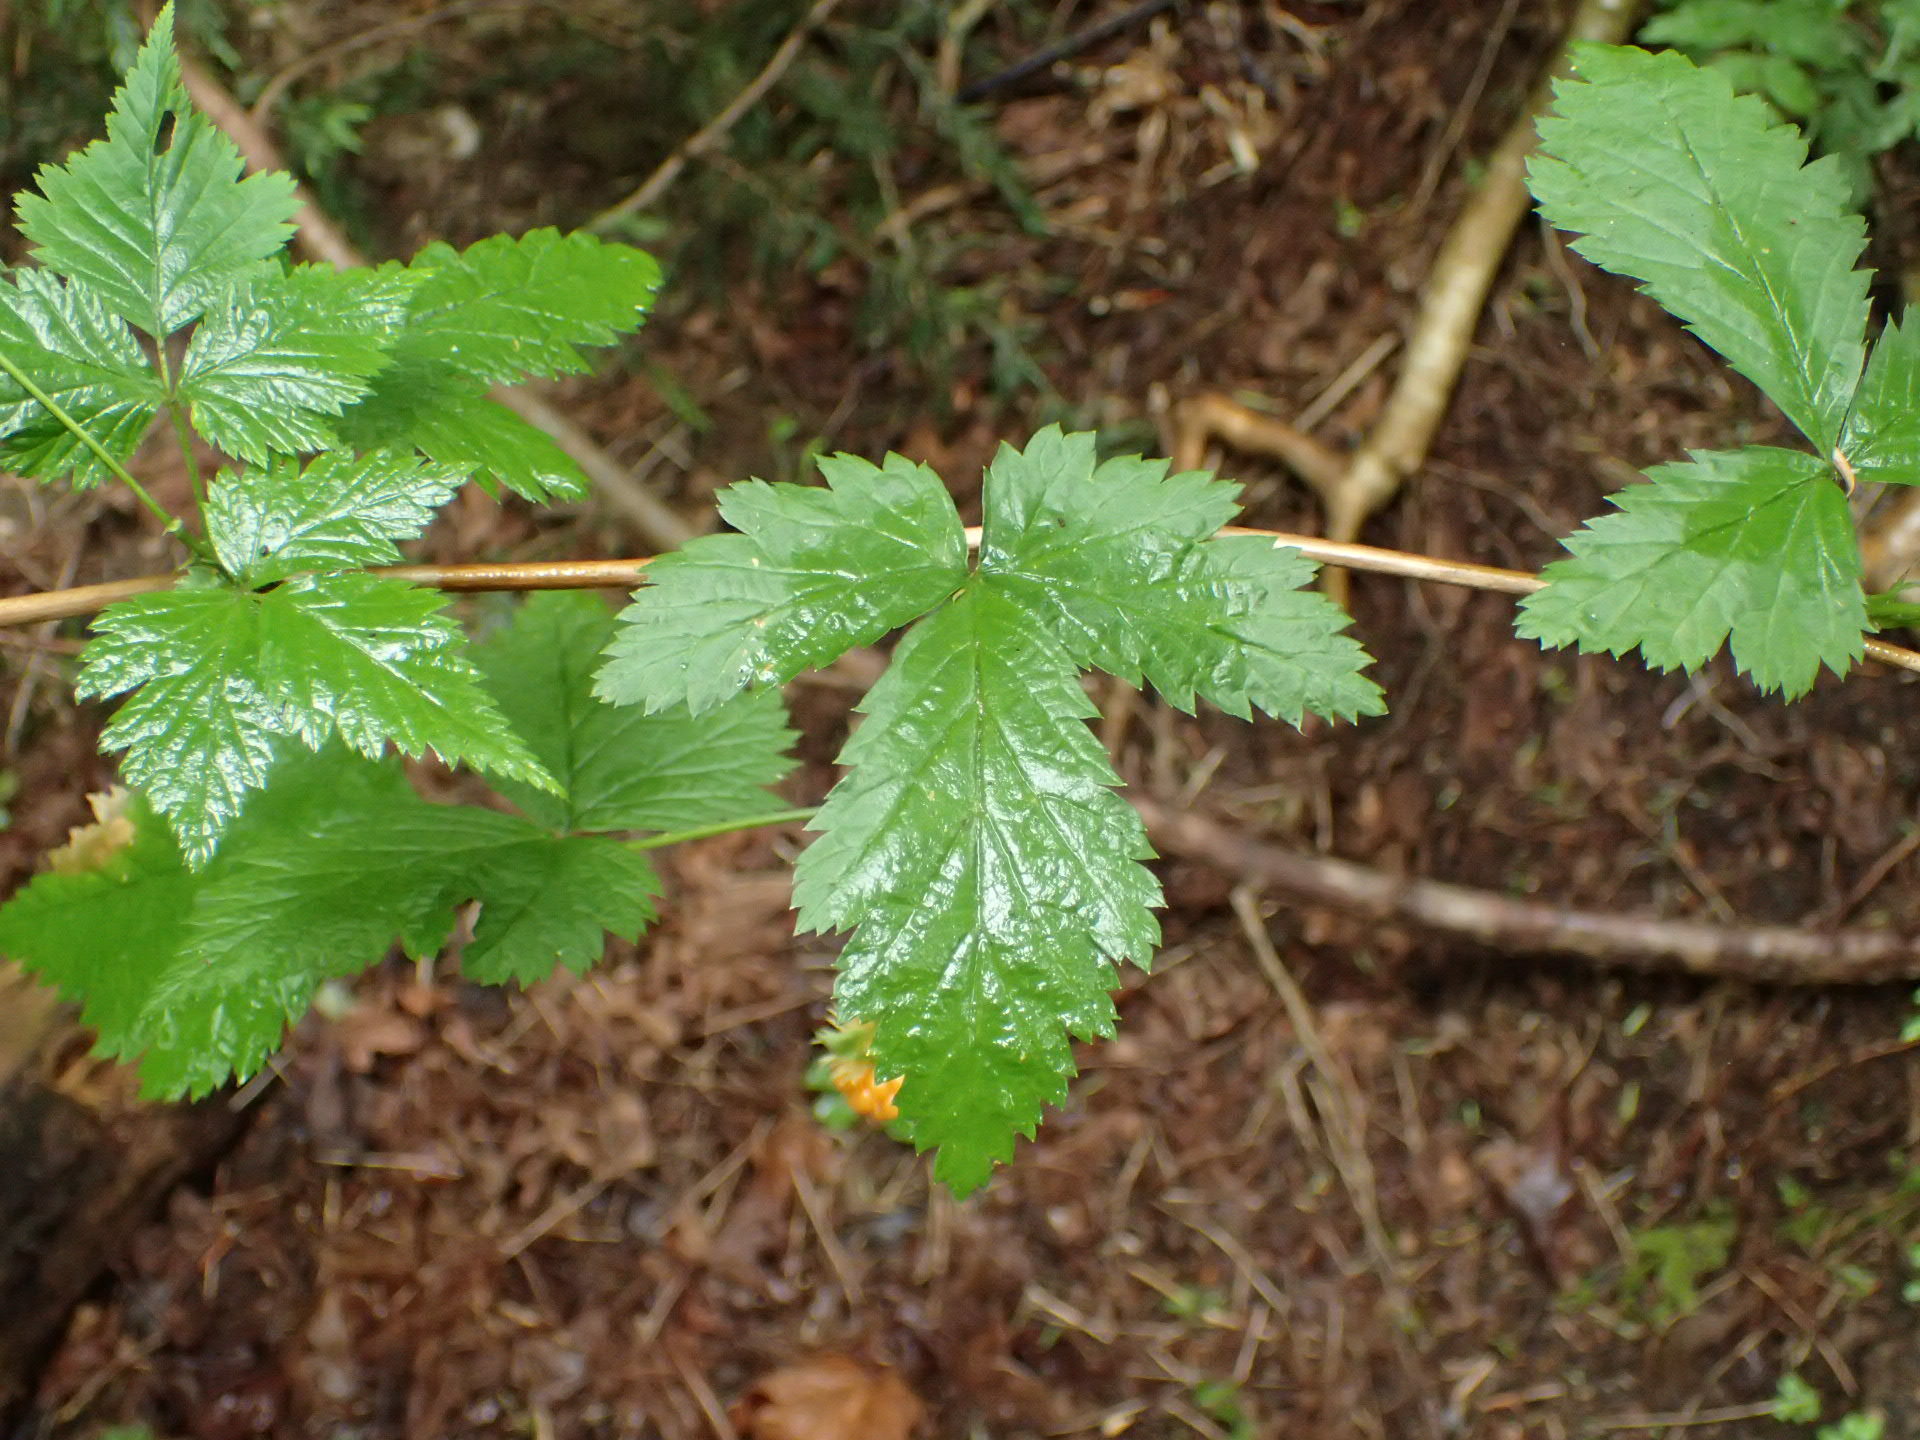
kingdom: Plantae
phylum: Tracheophyta
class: Magnoliopsida
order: Rosales
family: Rosaceae
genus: Rubus
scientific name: Rubus spectabilis
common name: Salmonberry
